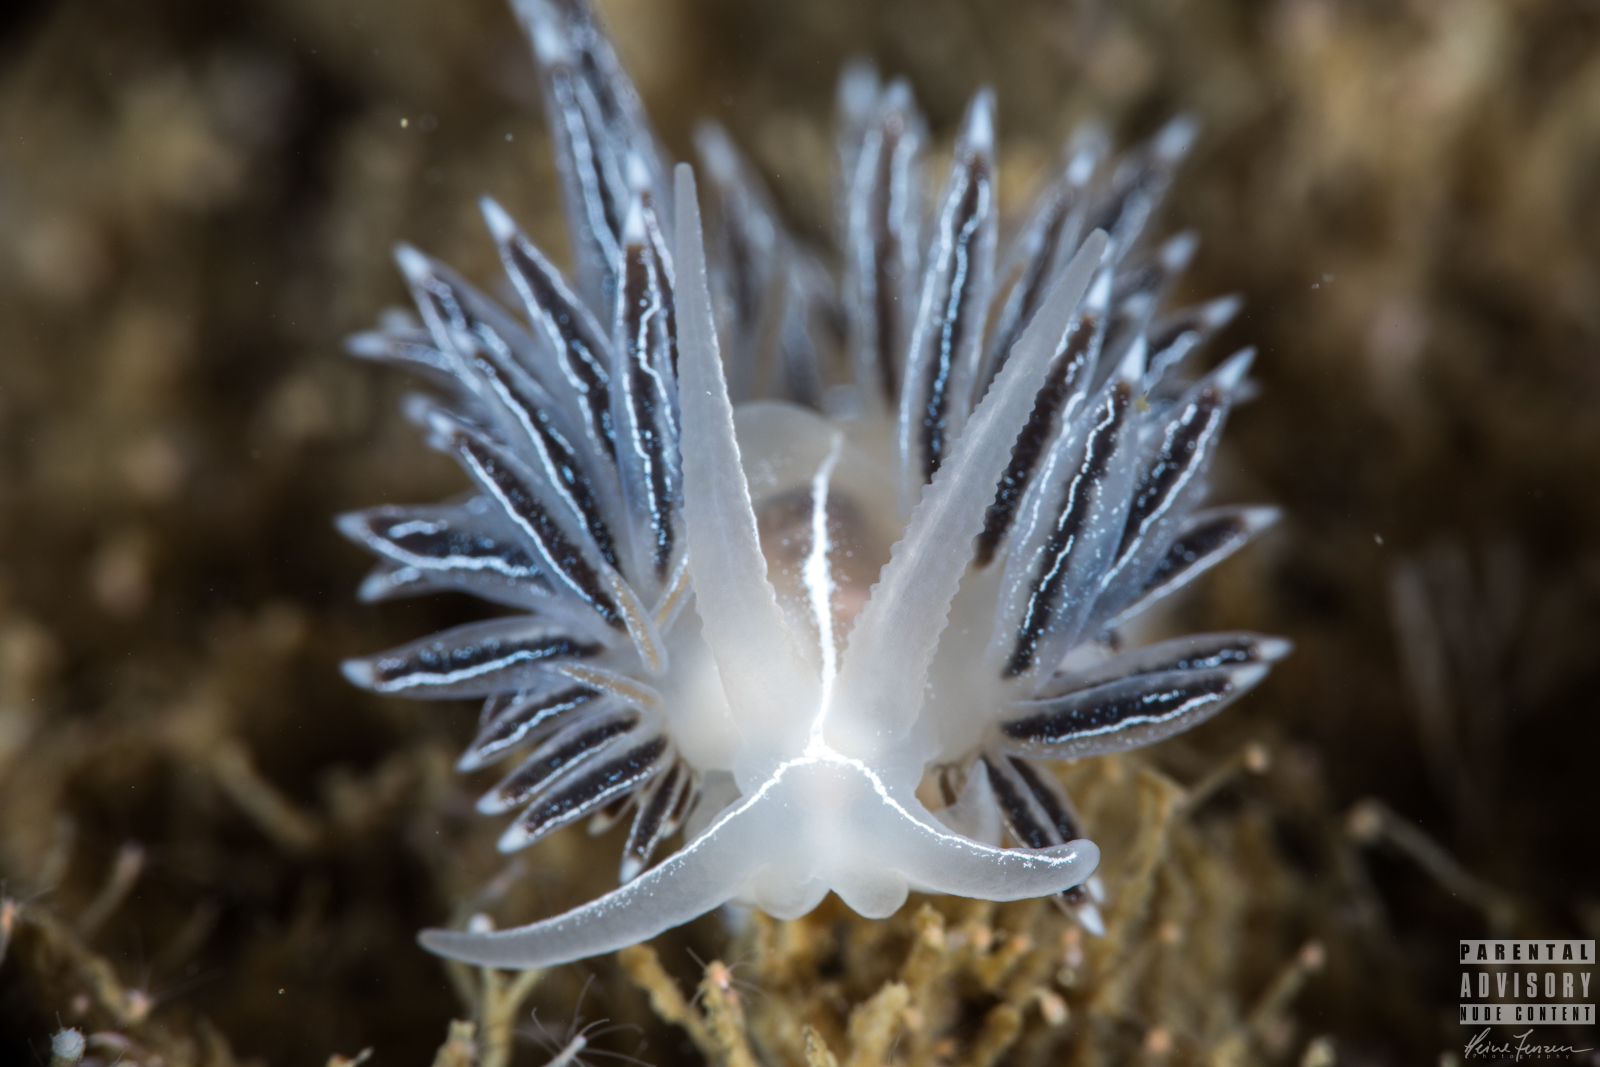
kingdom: Animalia
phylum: Mollusca
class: Gastropoda
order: Nudibranchia
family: Coryphellidae
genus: Coryphella
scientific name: Coryphella chriskaugei
